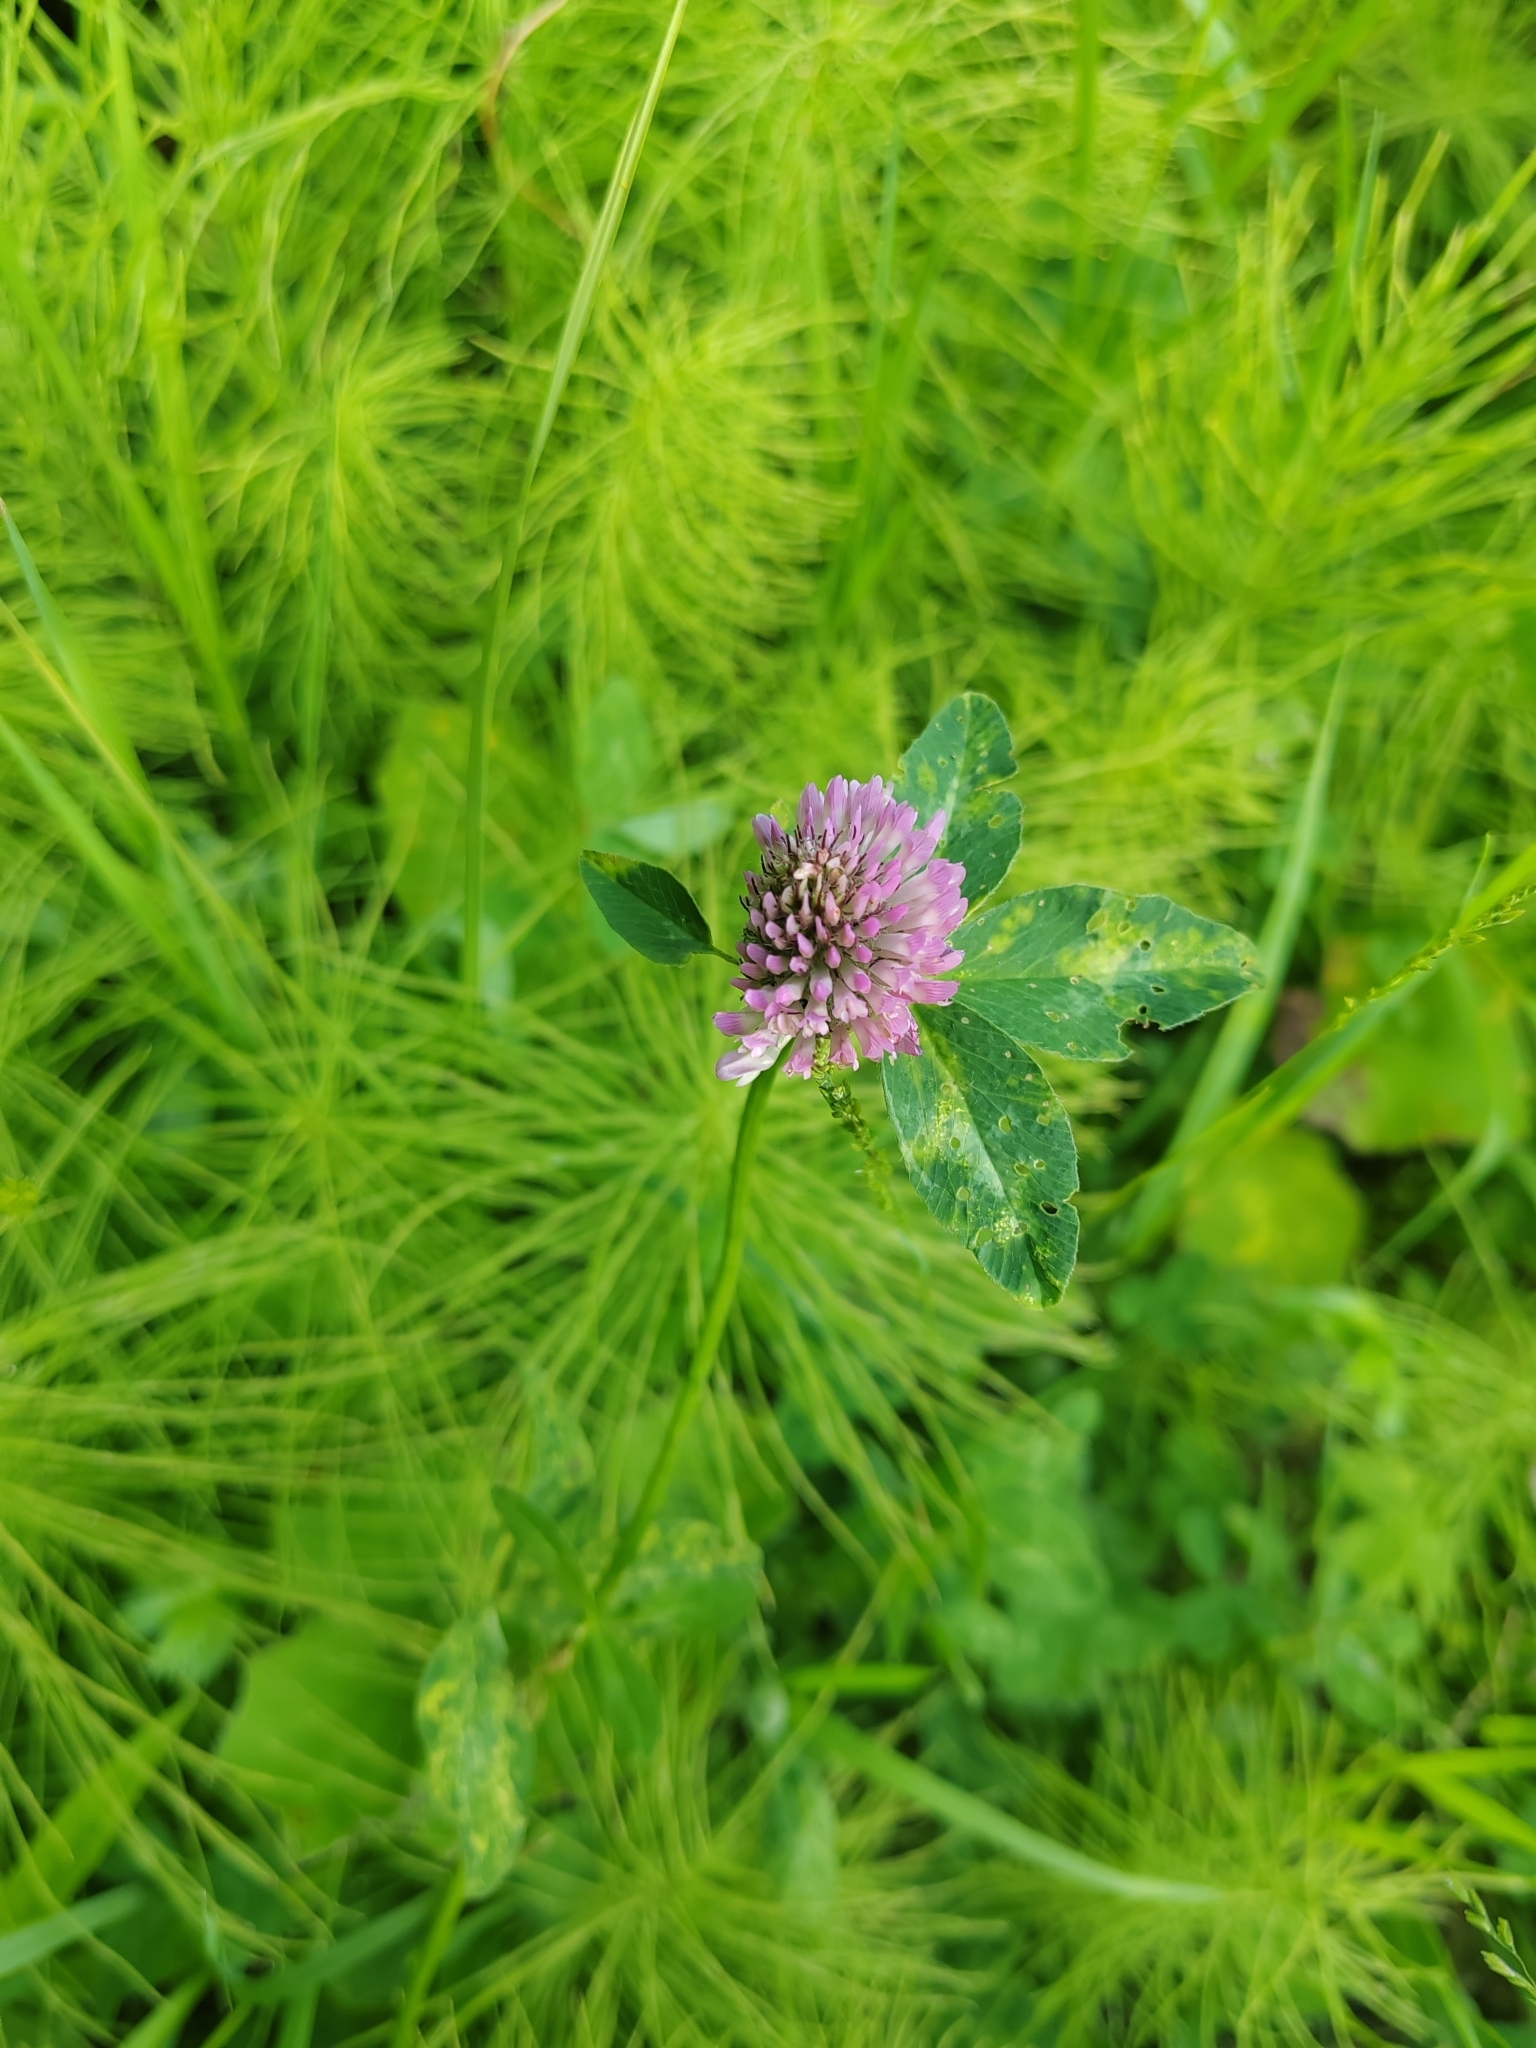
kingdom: Plantae
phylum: Tracheophyta
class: Magnoliopsida
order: Fabales
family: Fabaceae
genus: Trifolium
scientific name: Trifolium pratense
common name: Red clover
